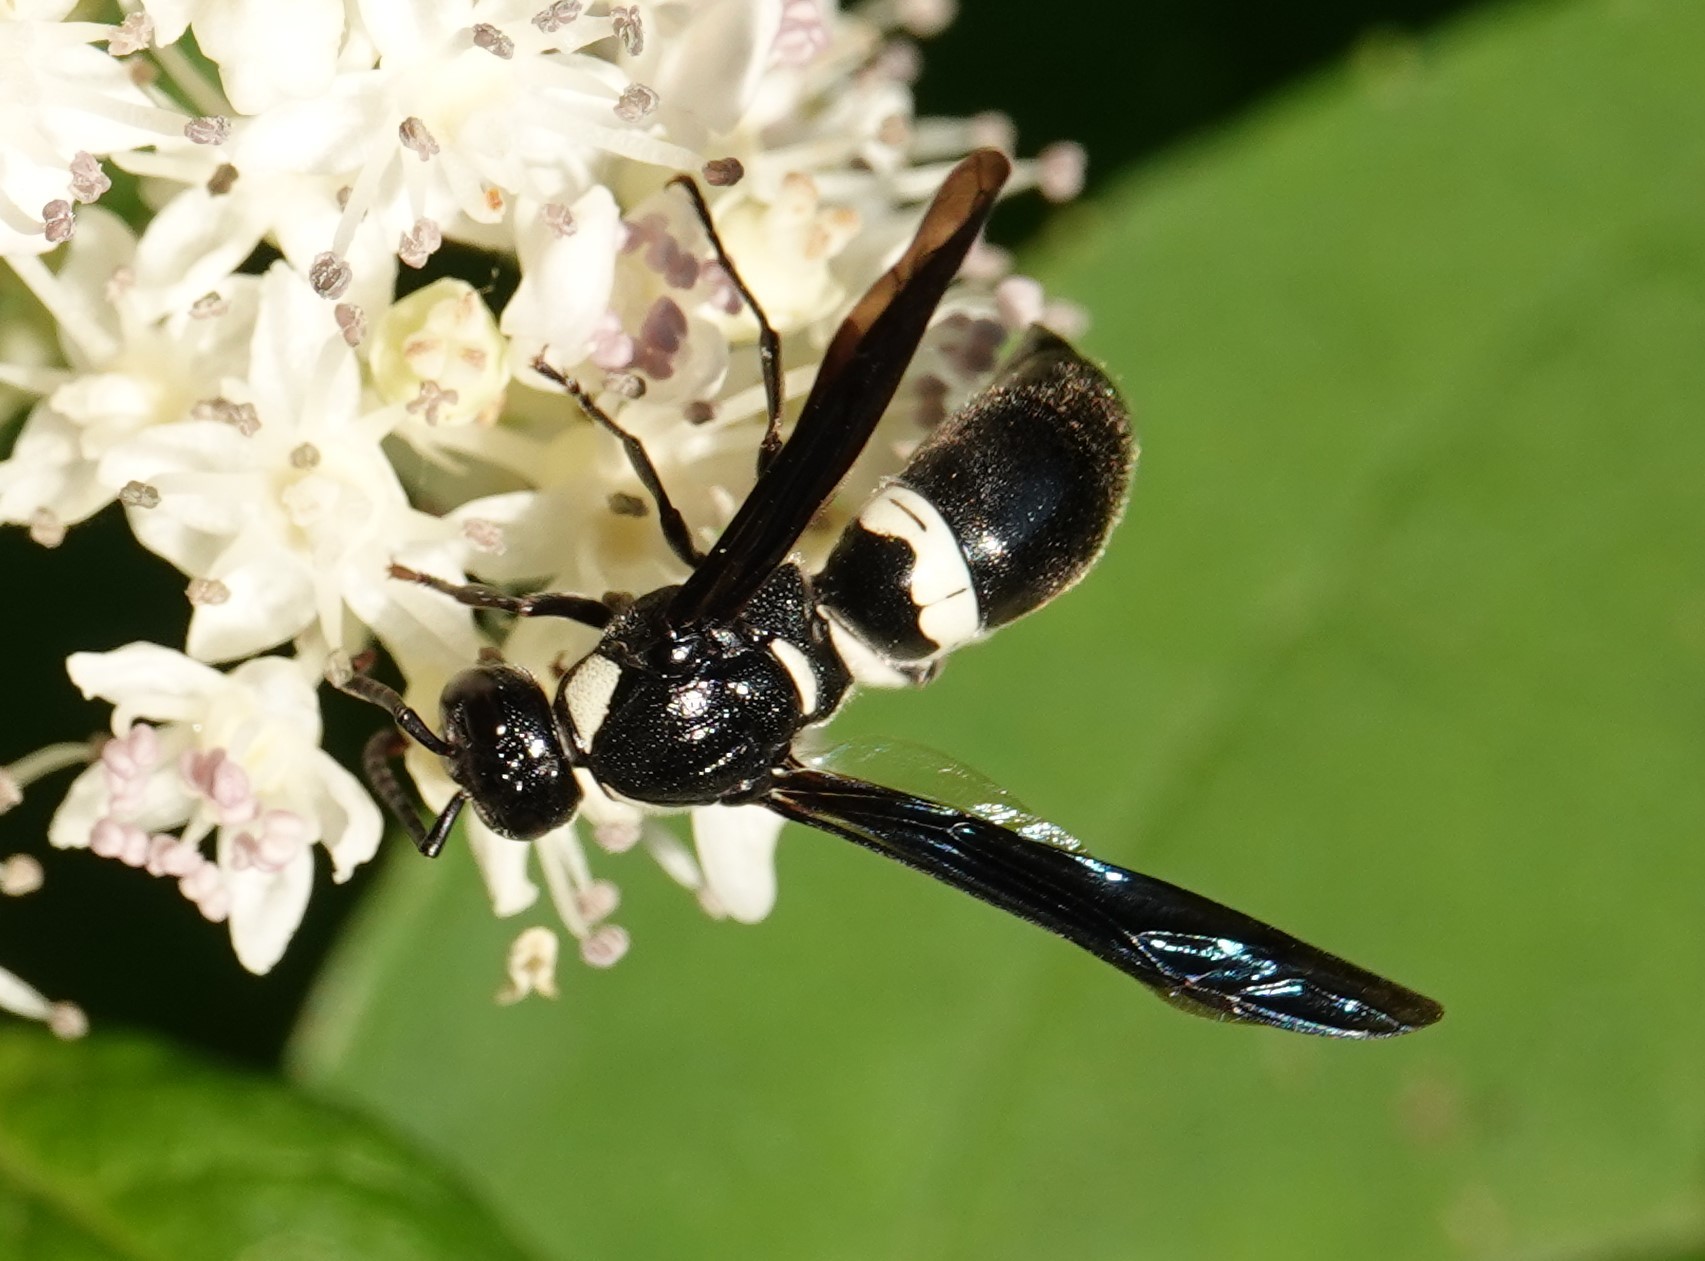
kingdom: Animalia
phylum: Arthropoda
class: Insecta
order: Hymenoptera
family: Eumenidae
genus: Monobia
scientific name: Monobia quadridens
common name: Four-toothed mason wasp
